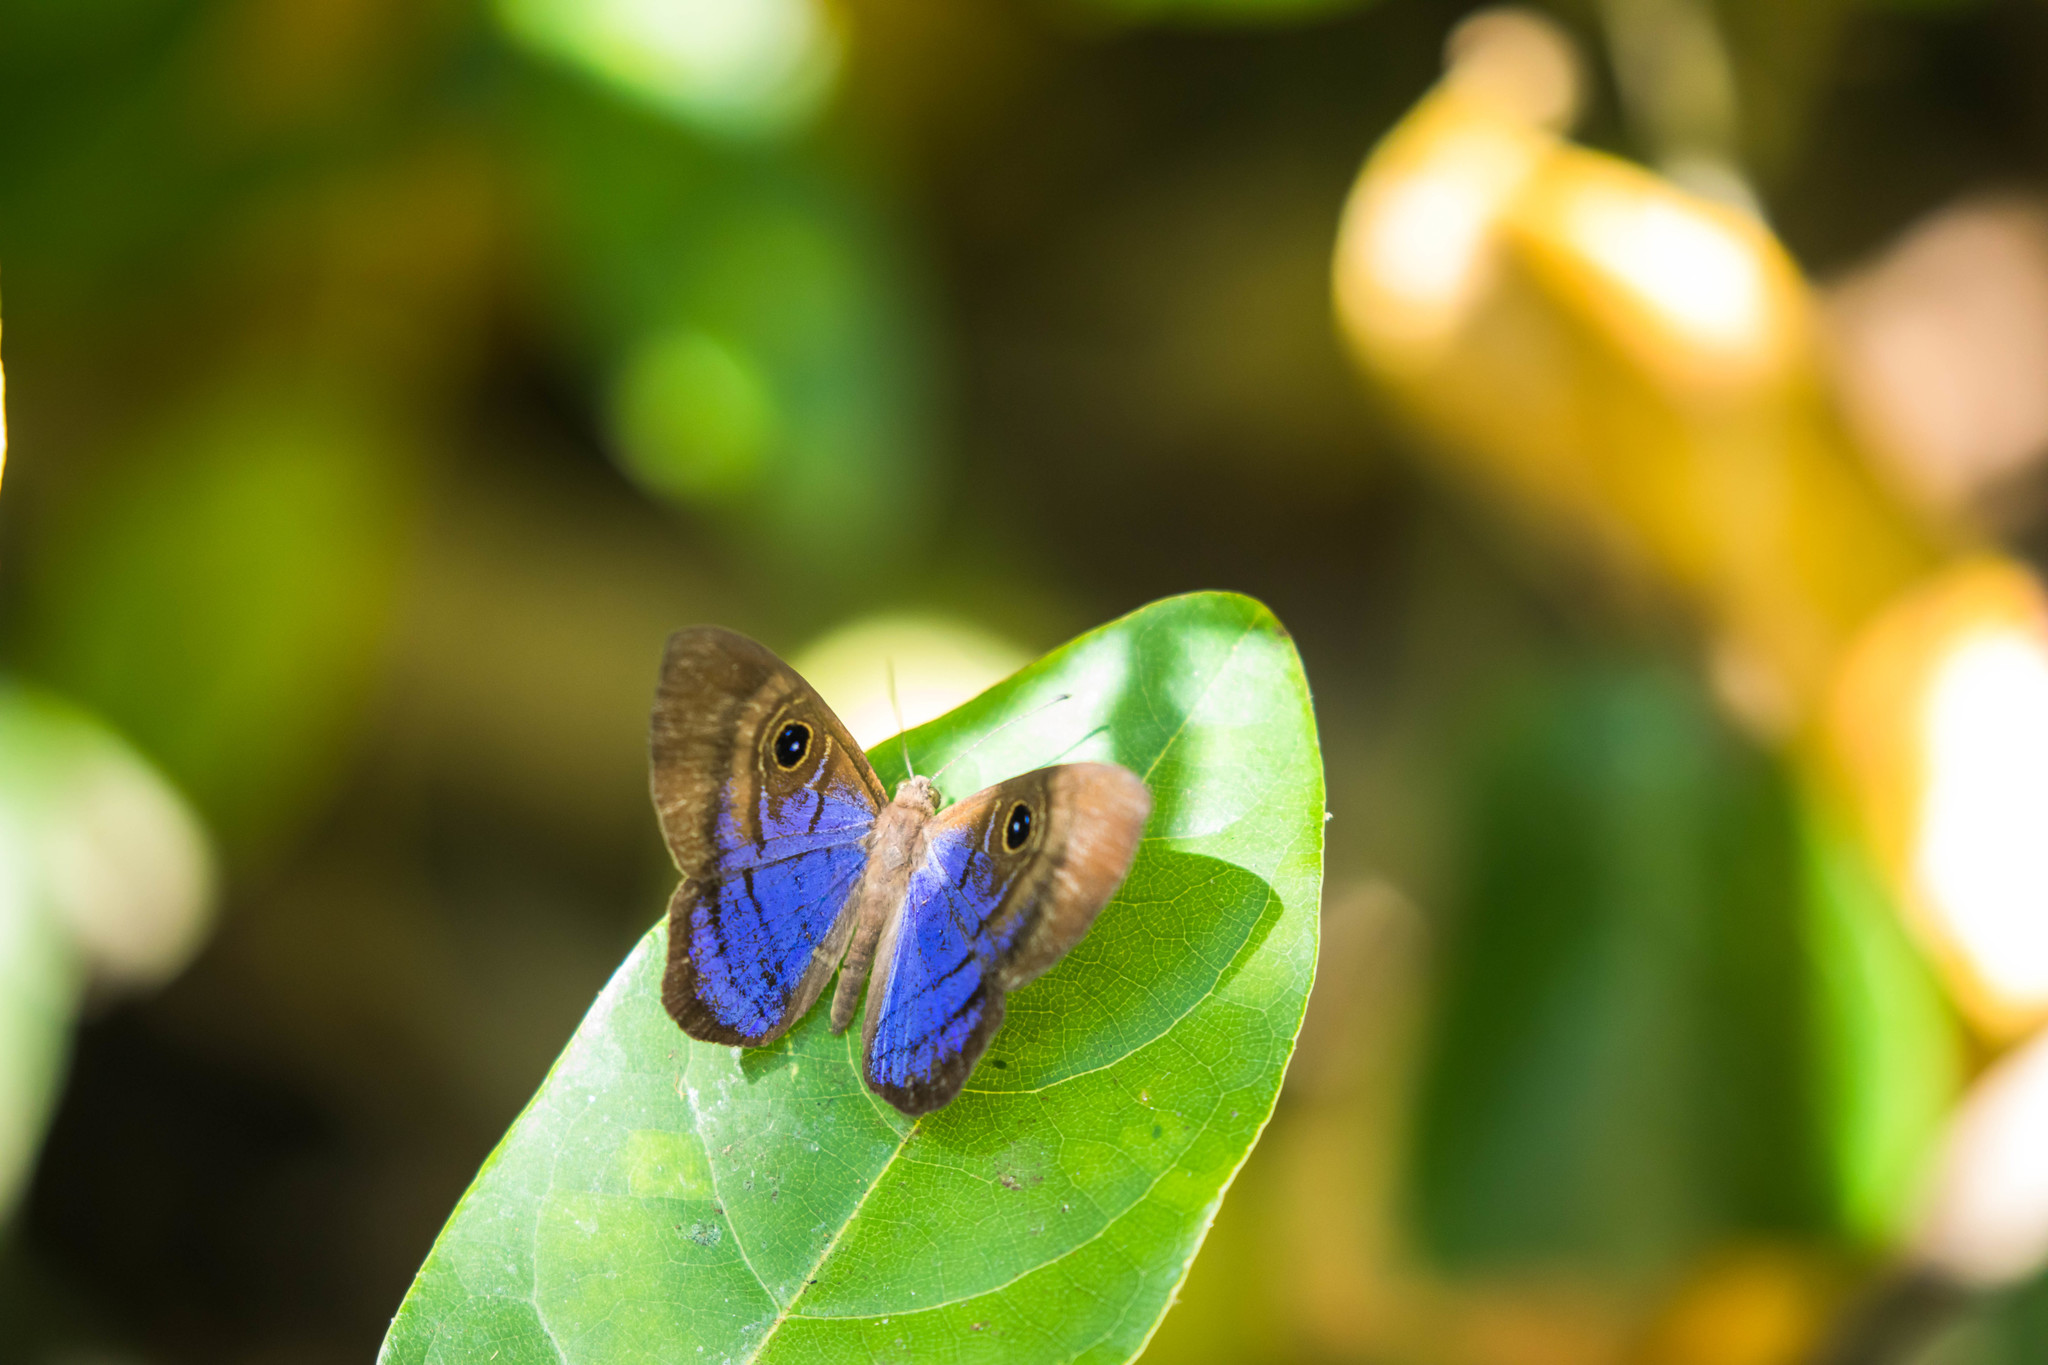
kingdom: Animalia
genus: Mesosemia
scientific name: Mesosemia
